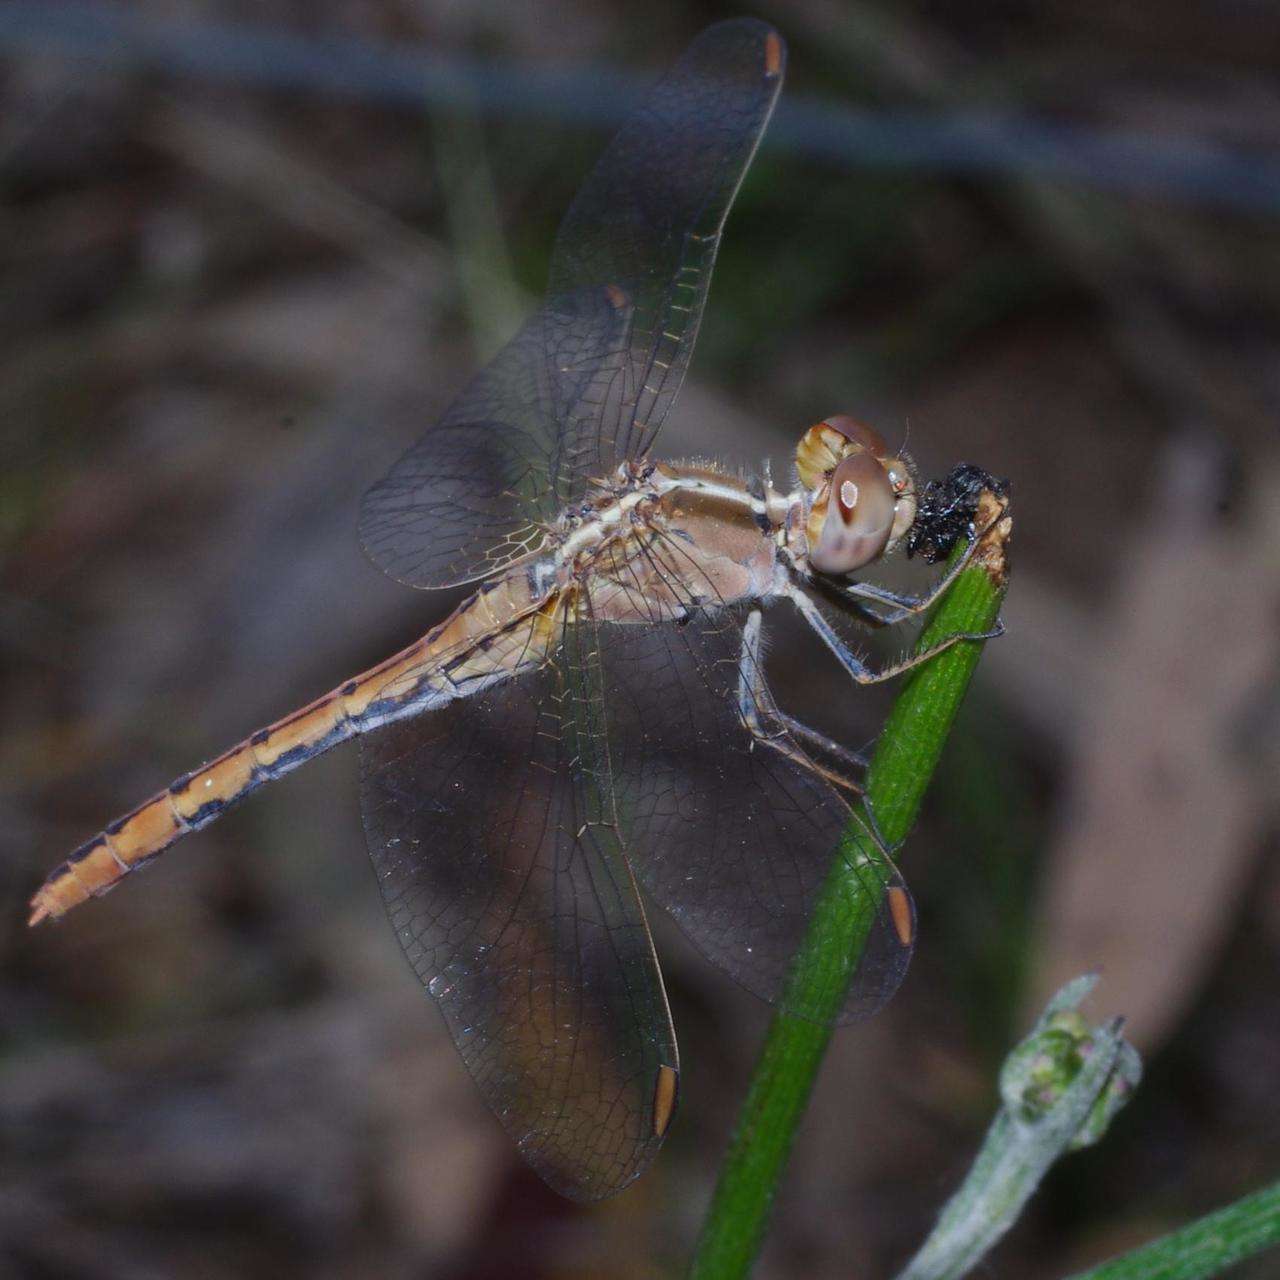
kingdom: Animalia
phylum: Arthropoda
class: Insecta
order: Odonata
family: Libellulidae
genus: Diplacodes
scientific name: Diplacodes bipunctata
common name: Red percher dragonfly
